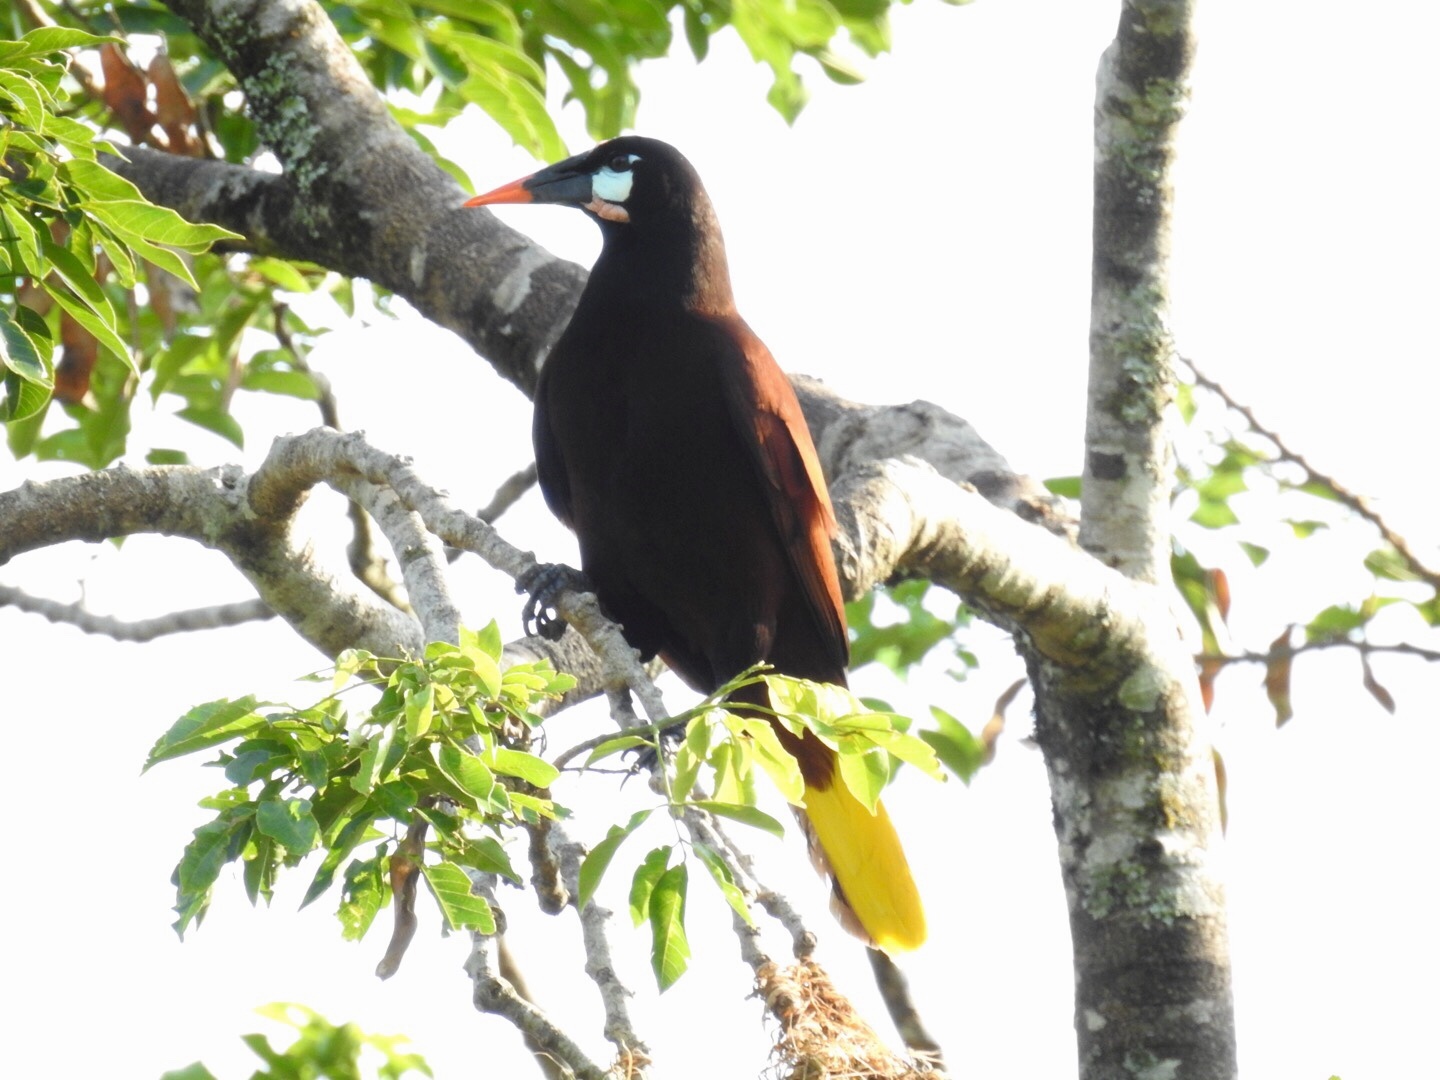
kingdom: Animalia
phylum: Chordata
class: Aves
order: Passeriformes
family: Icteridae
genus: Psarocolius
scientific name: Psarocolius montezuma
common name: Montezuma oropendola
